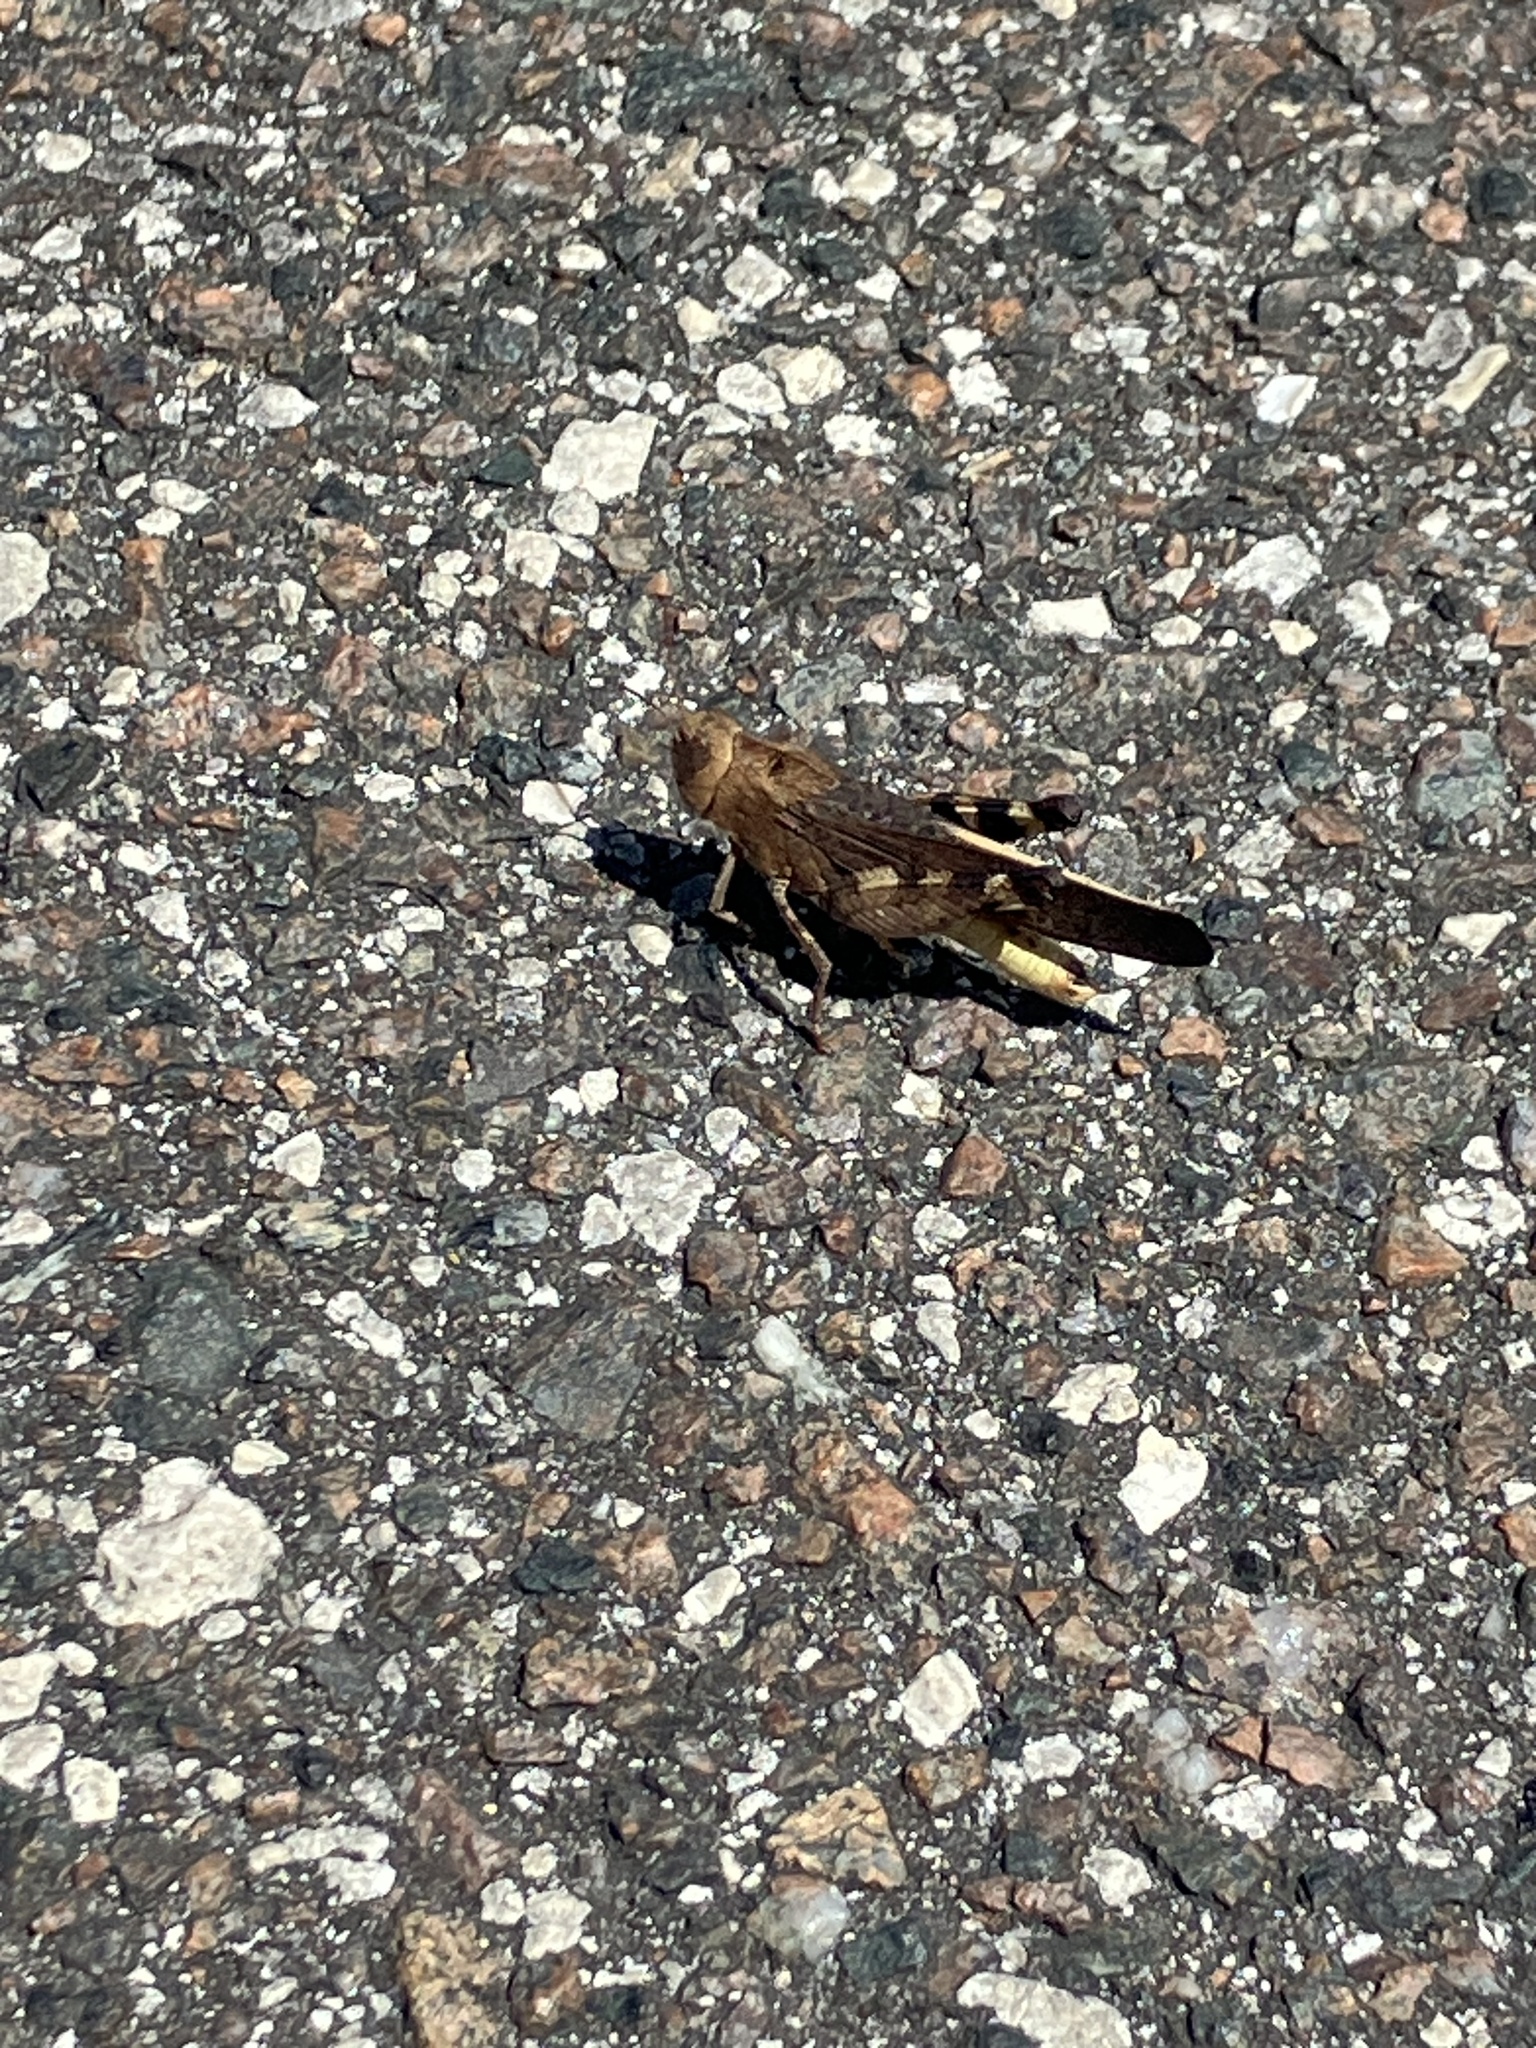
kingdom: Animalia
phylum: Arthropoda
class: Insecta
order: Orthoptera
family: Acrididae
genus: Arphia
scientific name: Arphia granulata
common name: Southern yellow-winged grasshopper
